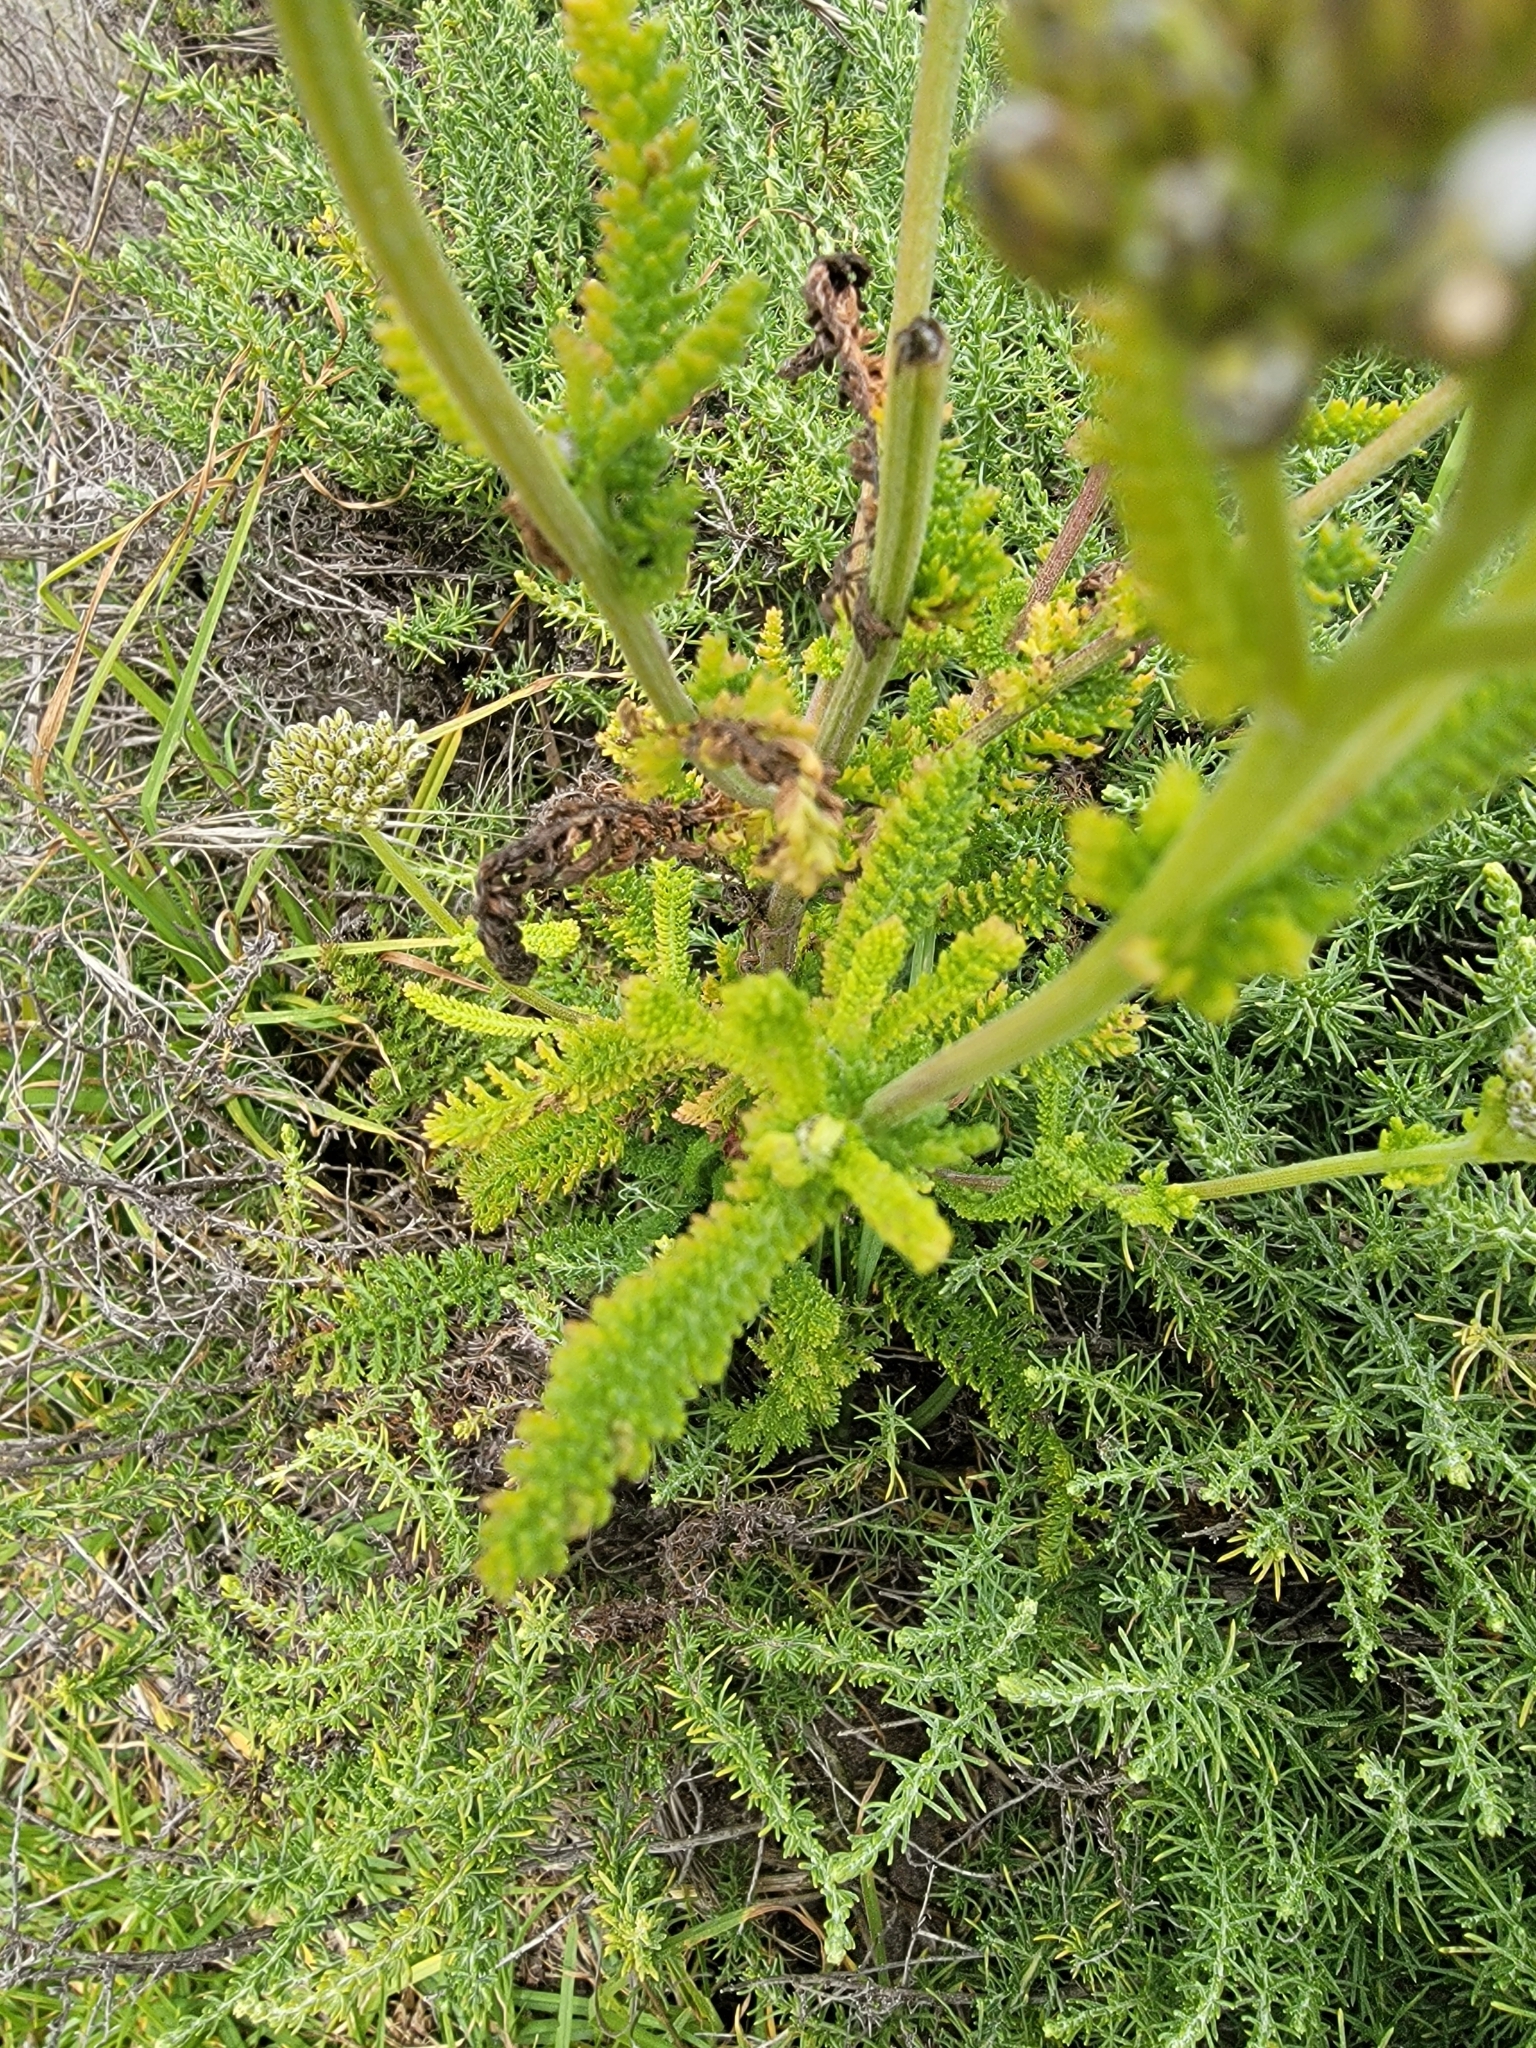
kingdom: Plantae
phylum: Tracheophyta
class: Magnoliopsida
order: Asterales
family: Asteraceae
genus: Achillea
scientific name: Achillea millefolium
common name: Yarrow
